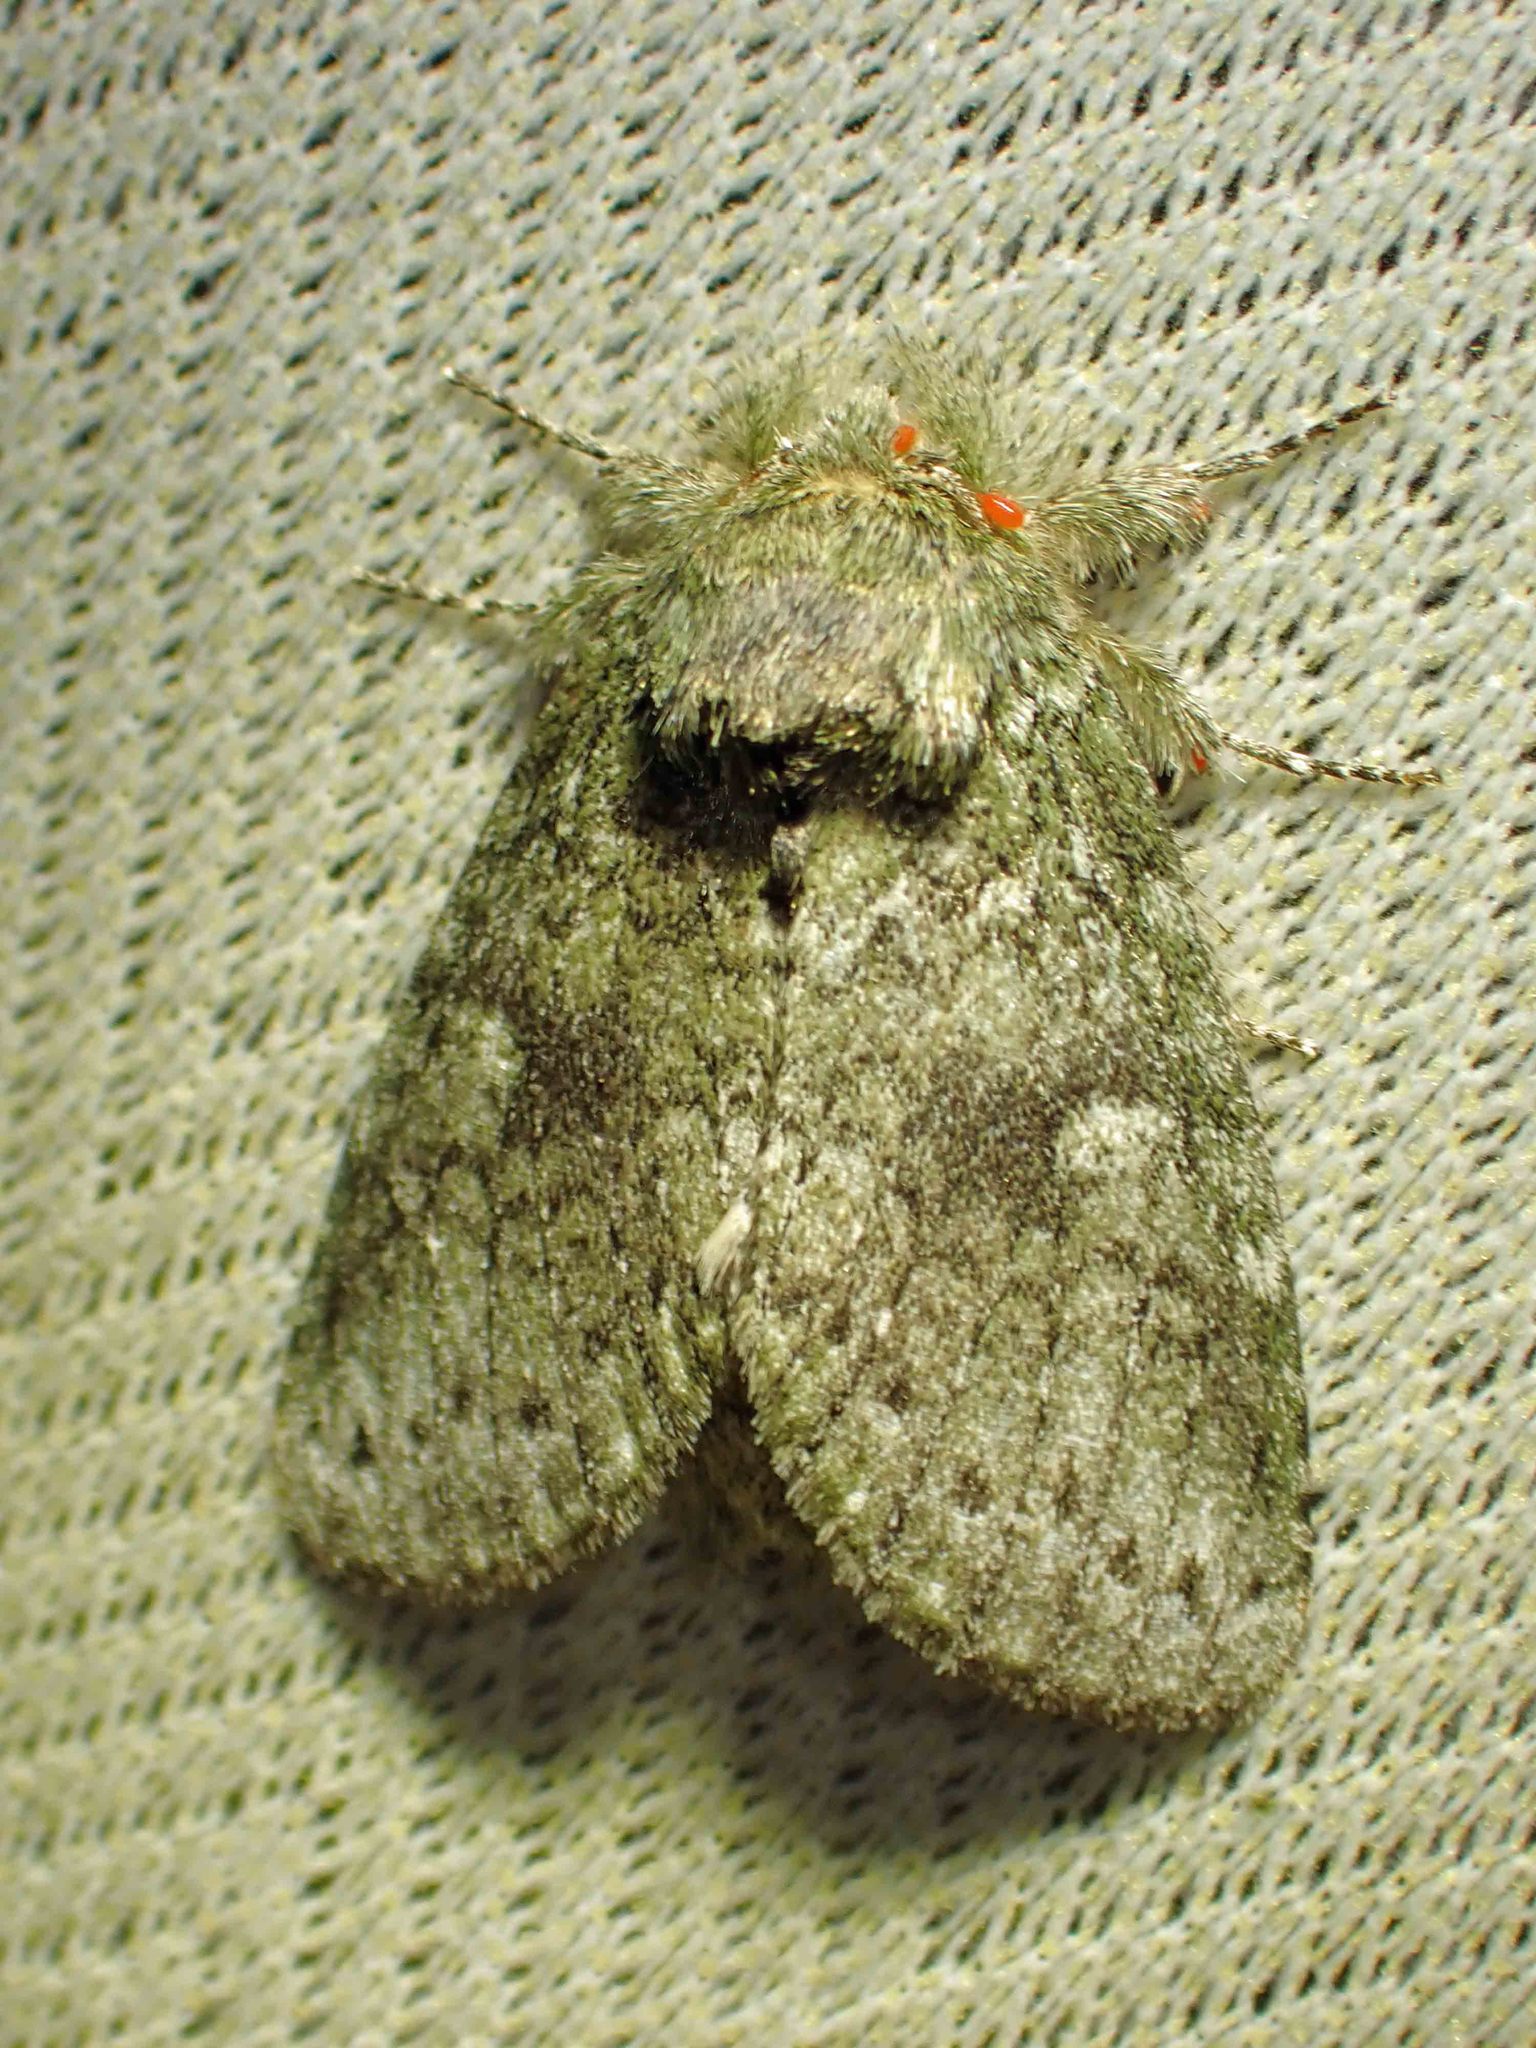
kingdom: Animalia
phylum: Arthropoda
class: Insecta
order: Lepidoptera
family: Notodontidae
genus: Disphragis
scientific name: Disphragis Cecrita guttivitta
